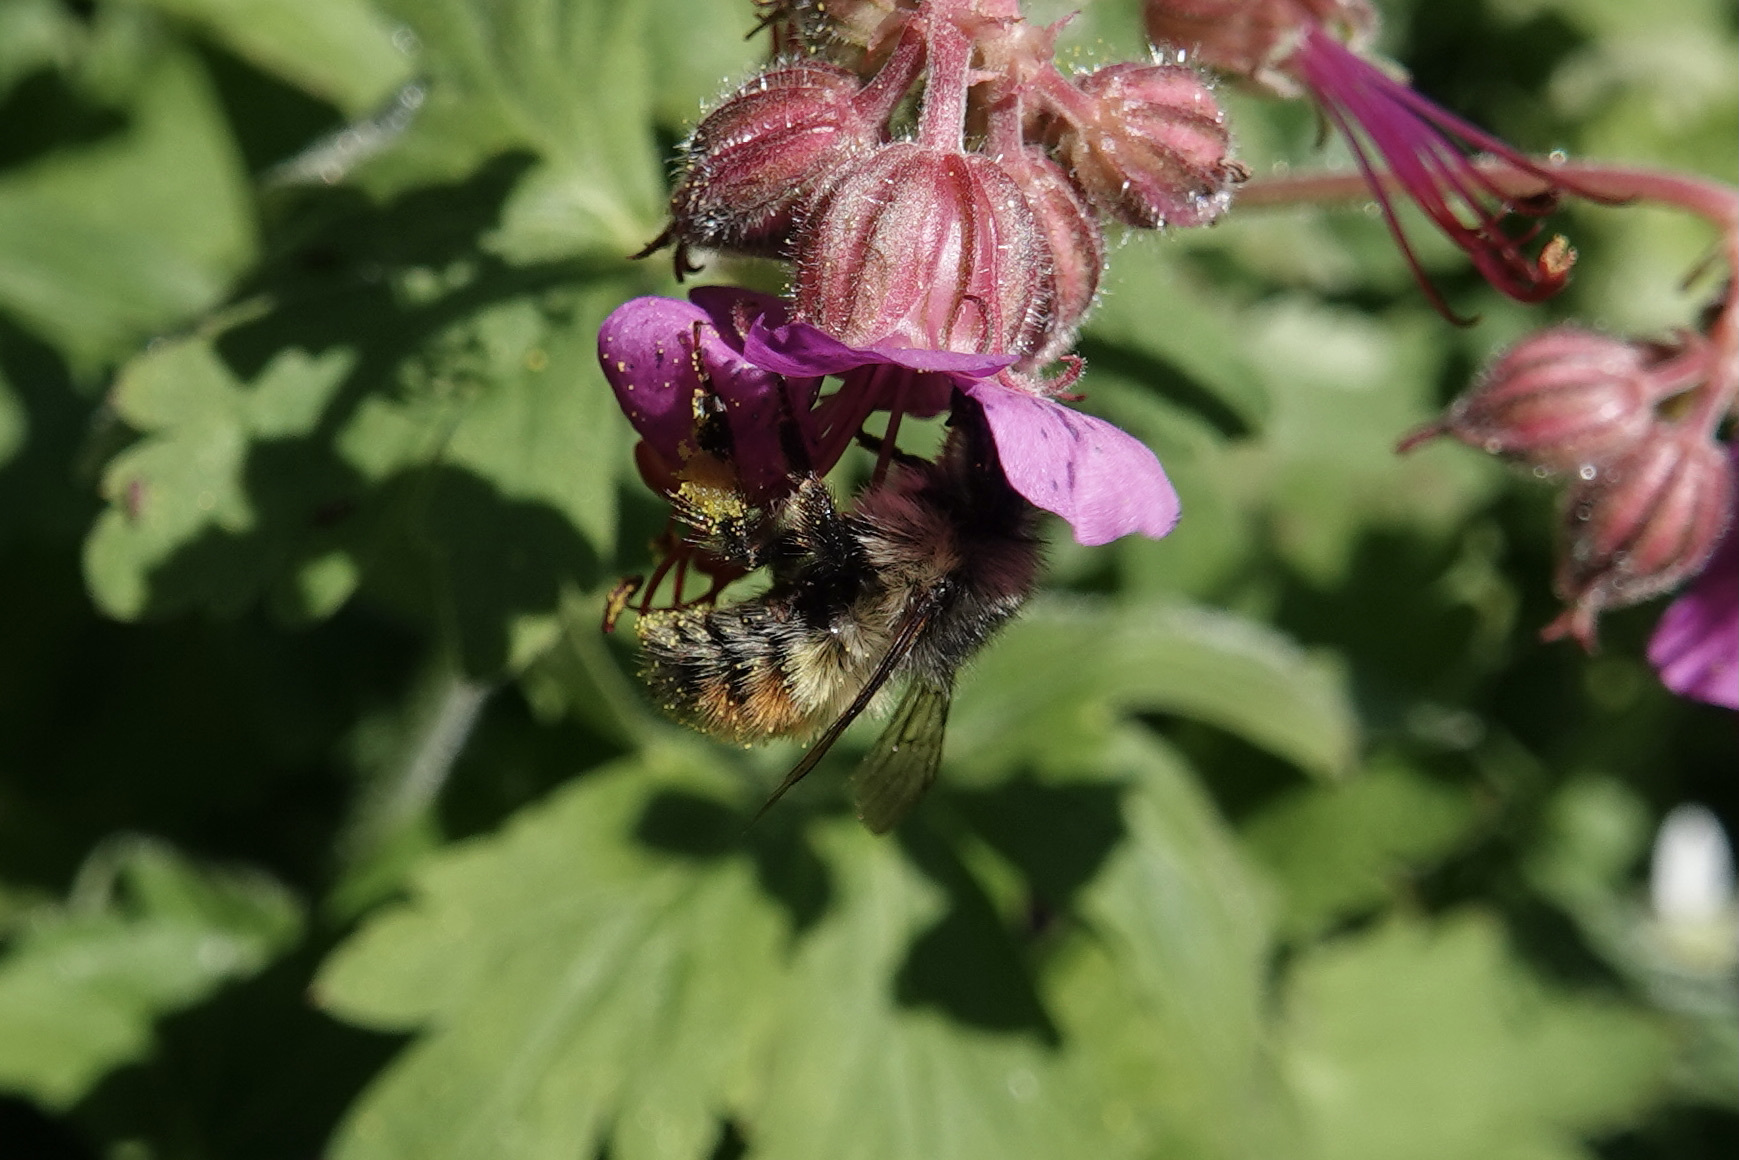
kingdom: Animalia
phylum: Arthropoda
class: Insecta
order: Hymenoptera
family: Apidae
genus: Bombus
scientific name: Bombus flavifrons
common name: Yellow head bumble bee
